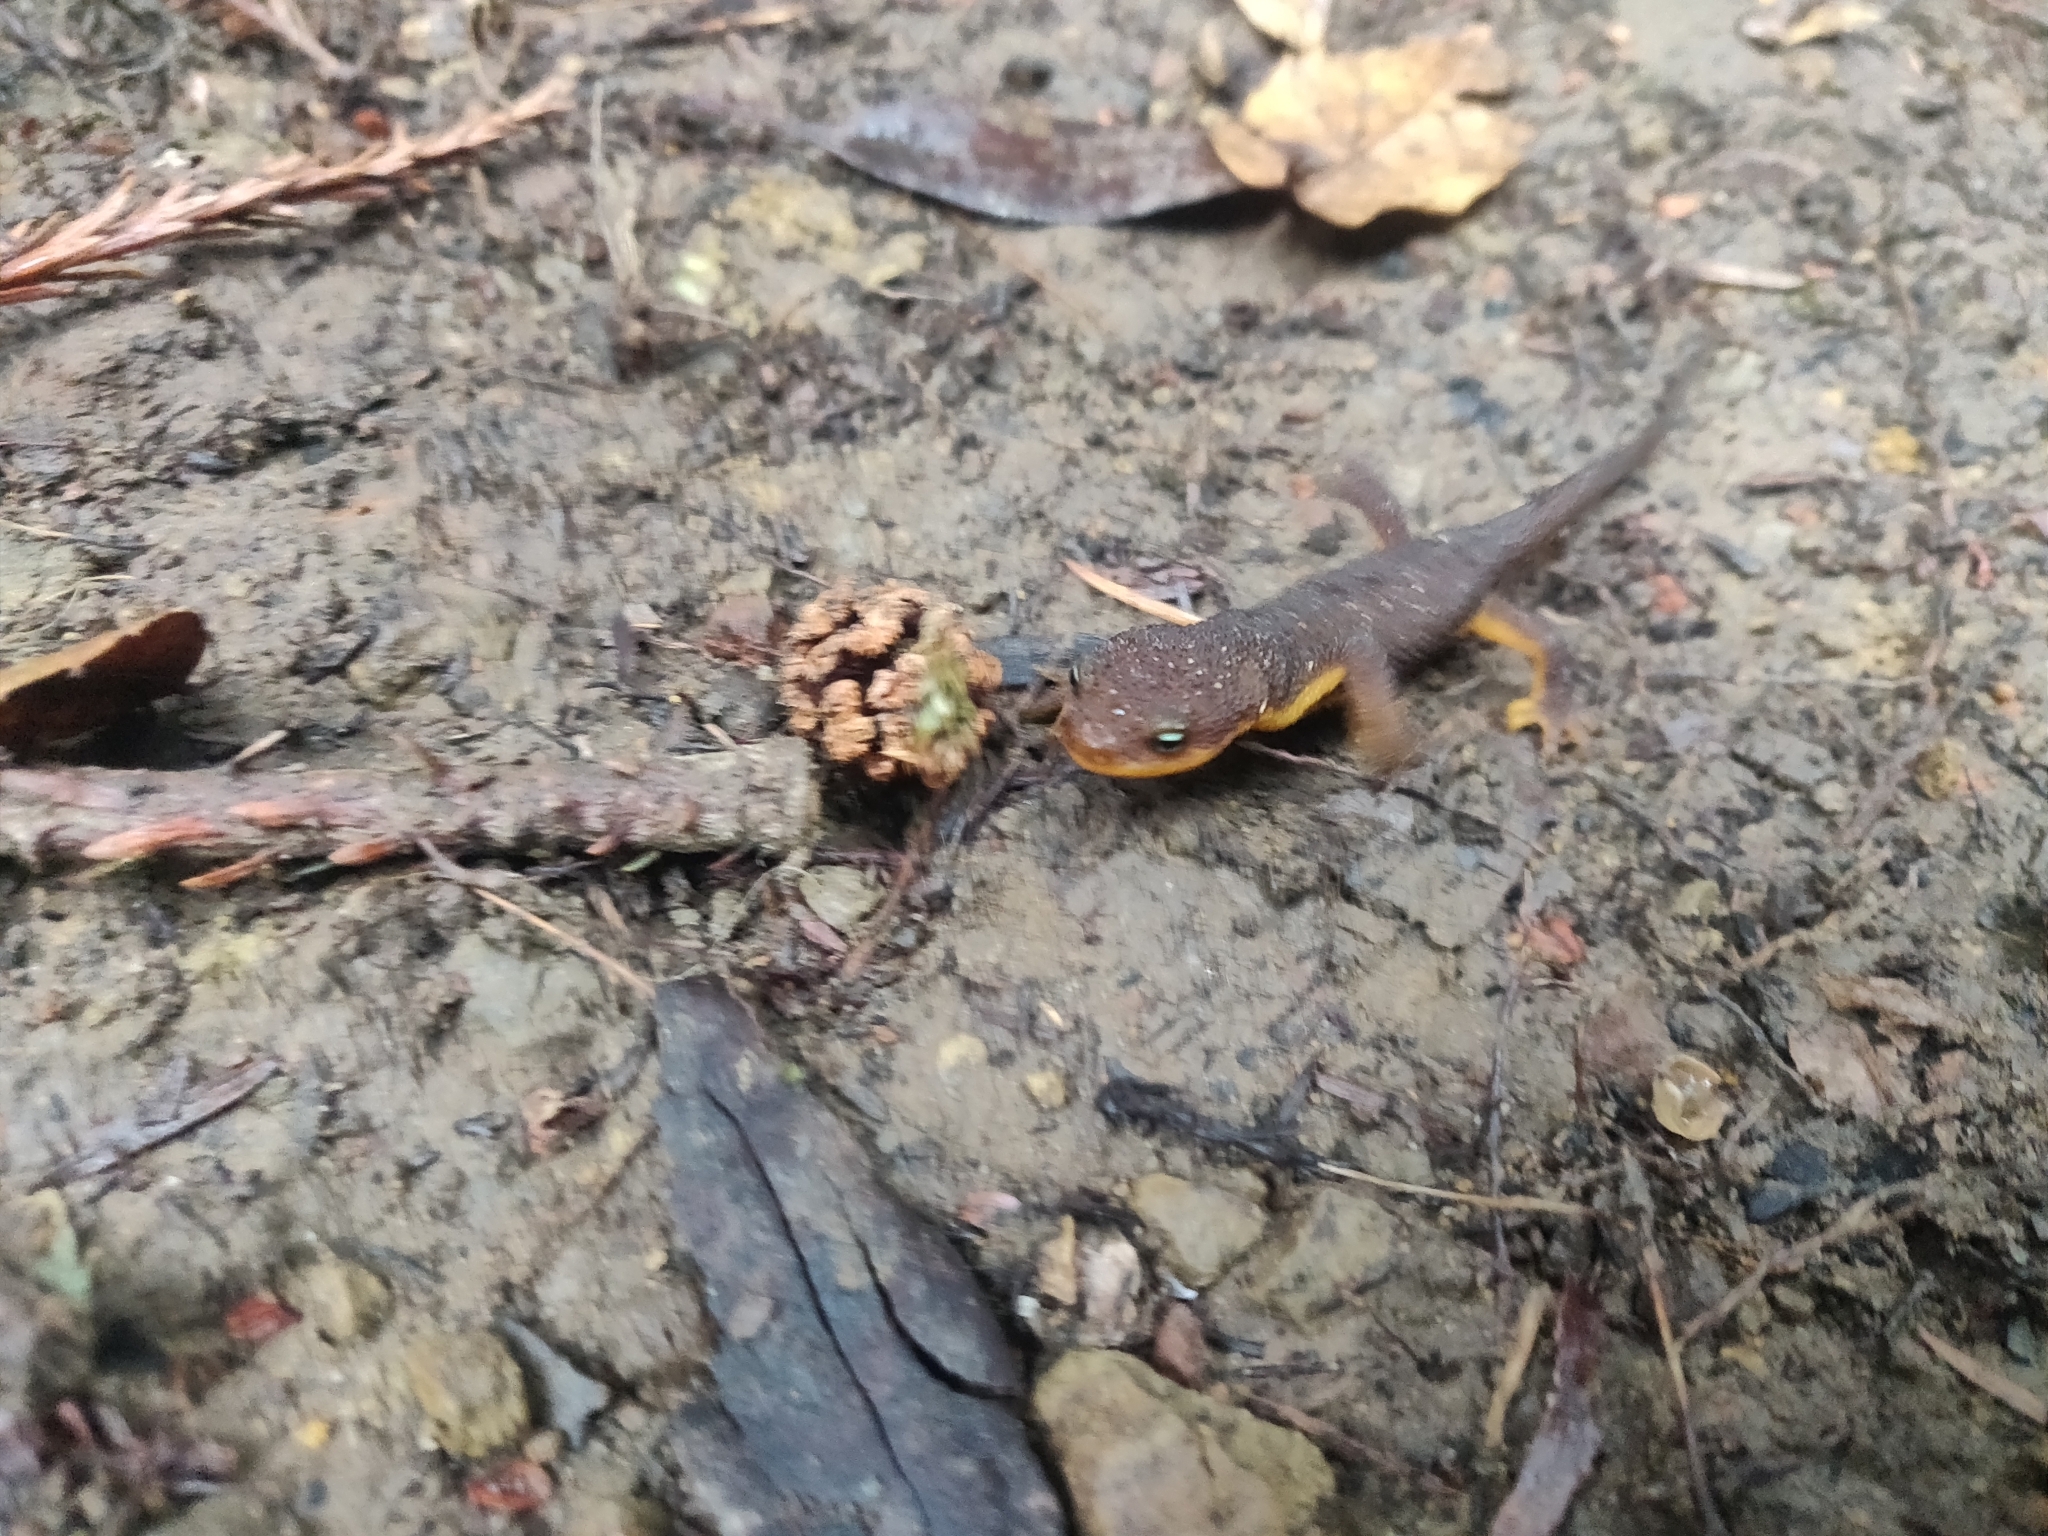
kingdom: Animalia
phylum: Chordata
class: Amphibia
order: Caudata
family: Salamandridae
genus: Taricha
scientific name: Taricha torosa
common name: California newt
